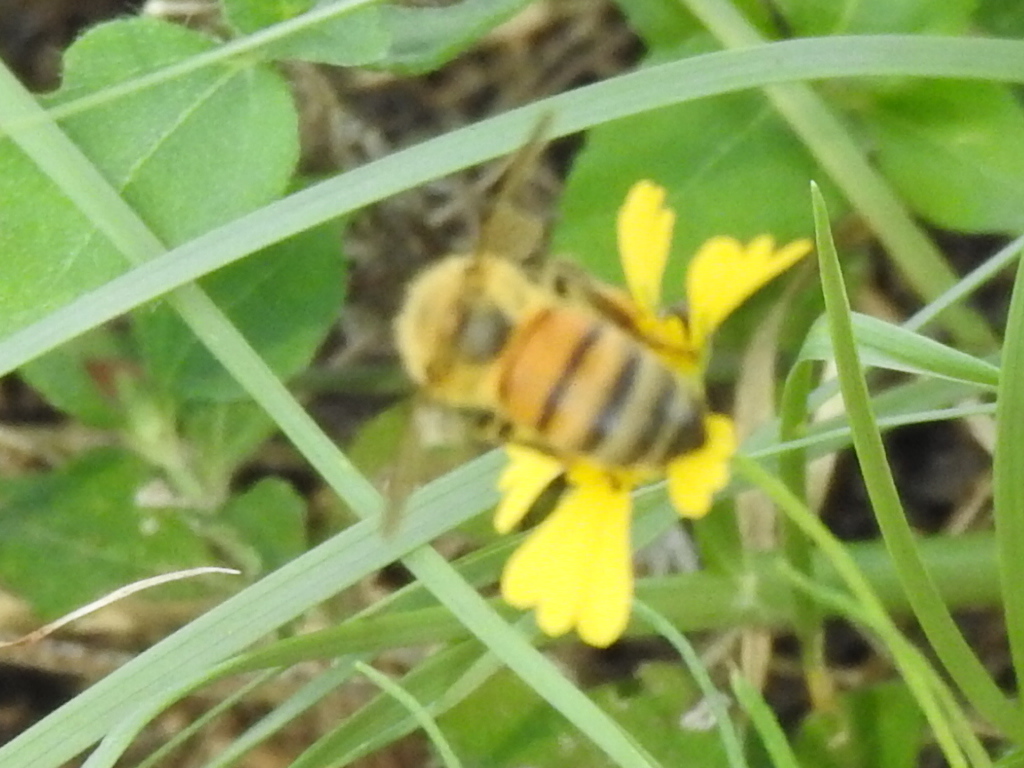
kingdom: Animalia
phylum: Arthropoda
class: Insecta
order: Hymenoptera
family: Apidae
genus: Apis
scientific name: Apis mellifera
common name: Honey bee
